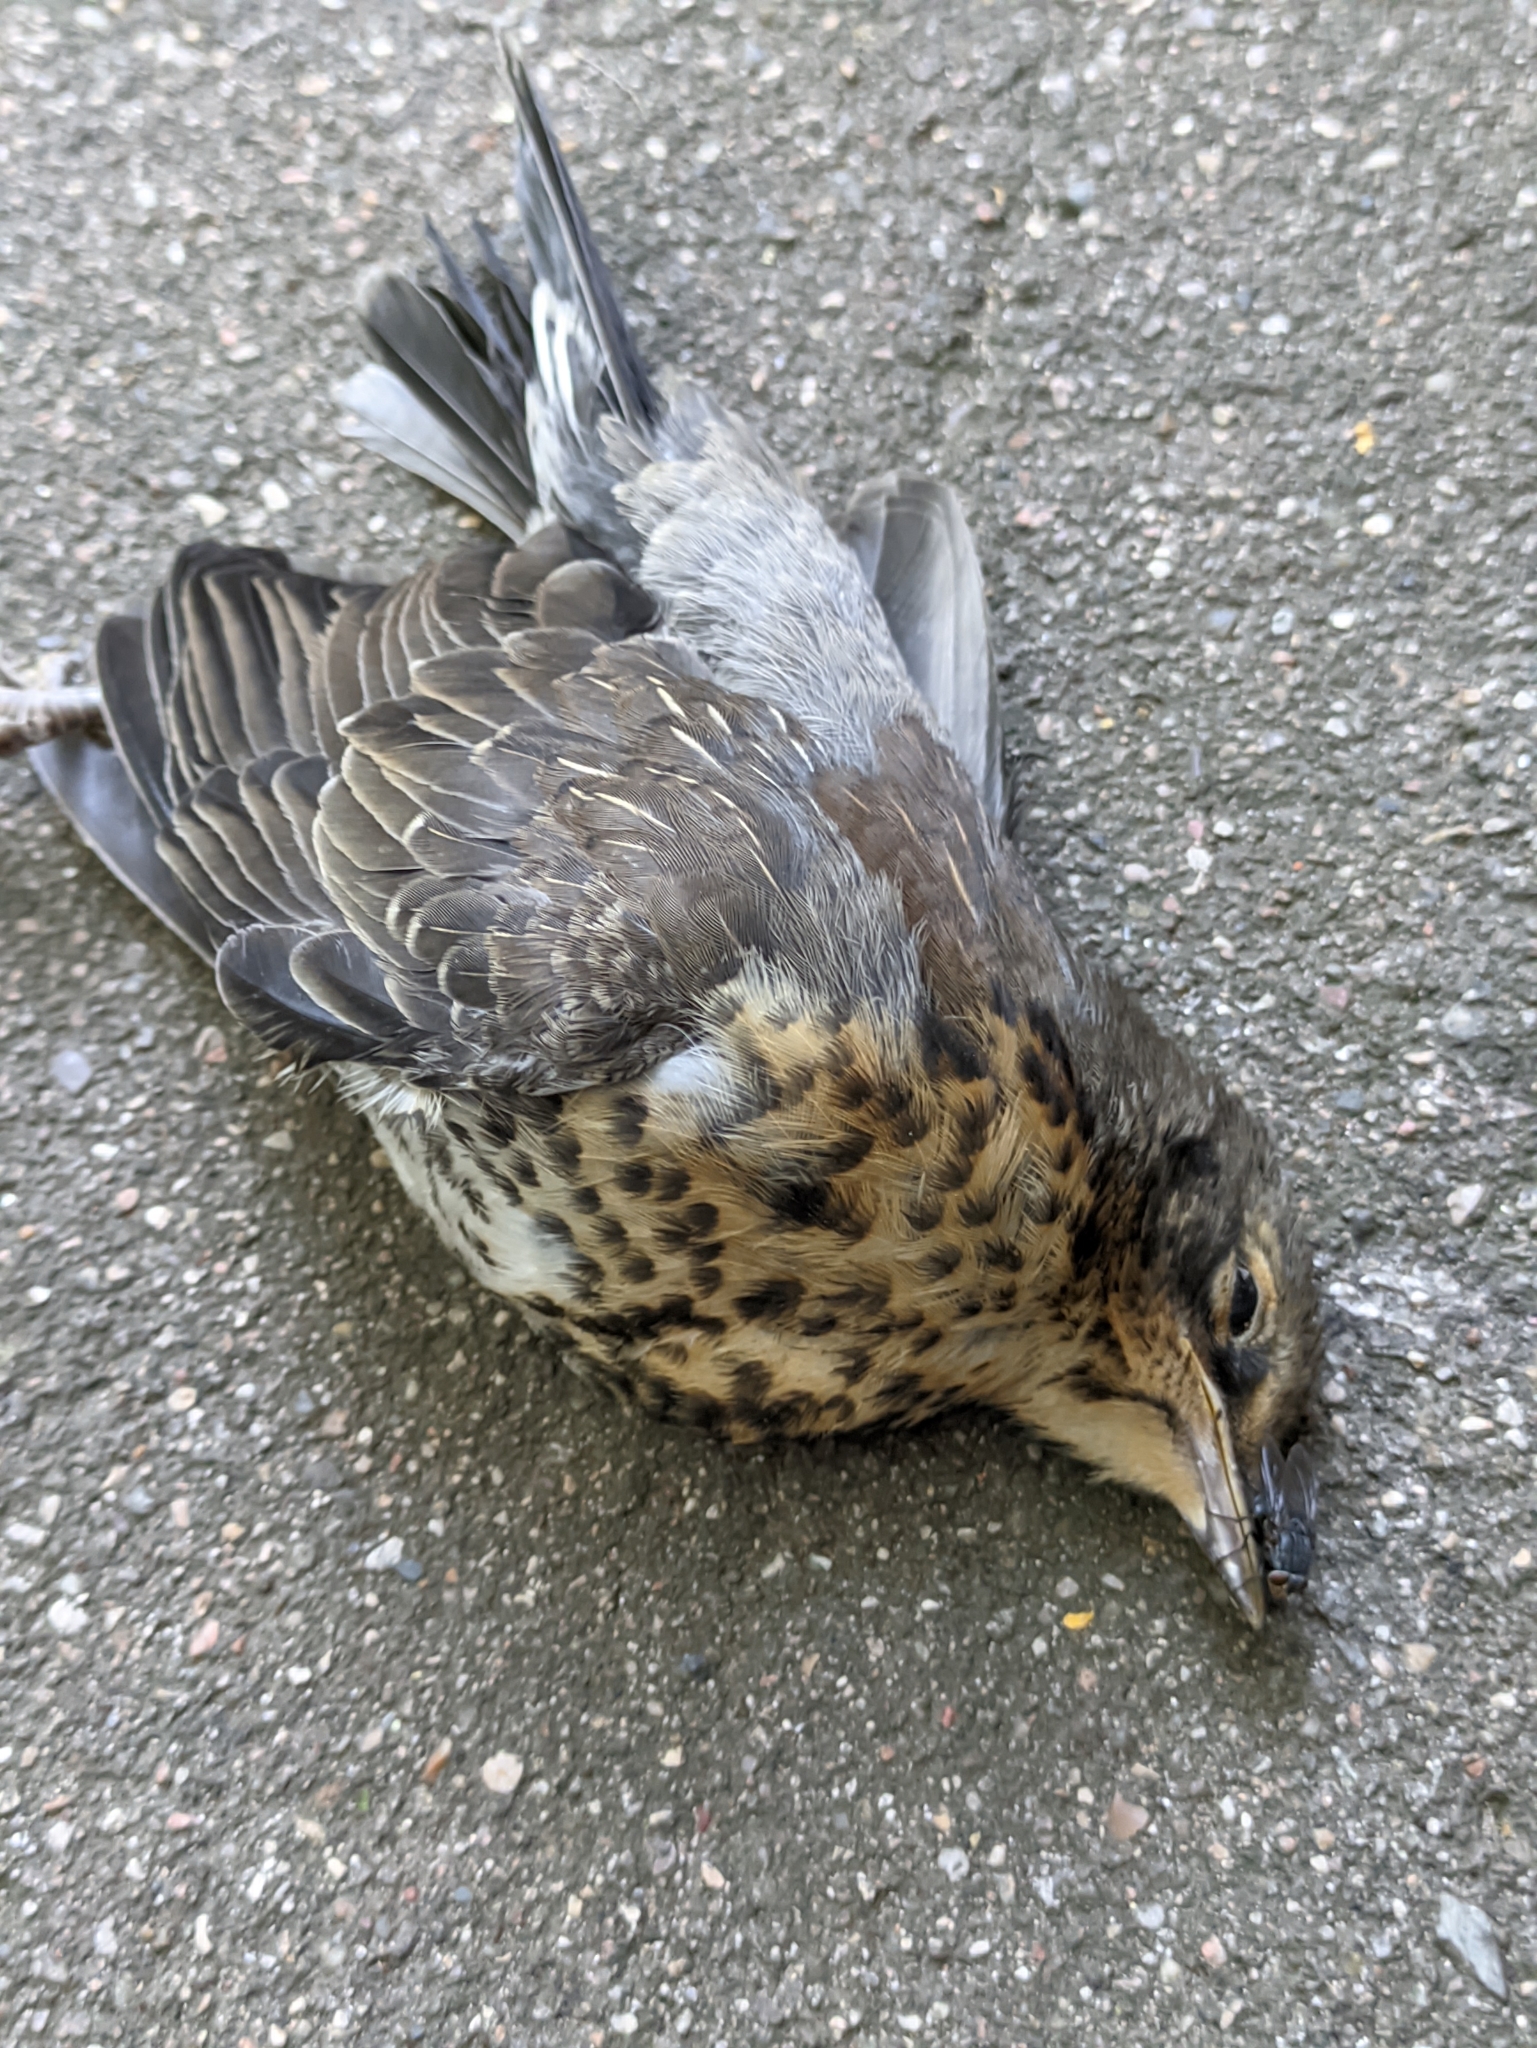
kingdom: Animalia
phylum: Chordata
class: Aves
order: Passeriformes
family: Turdidae
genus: Turdus
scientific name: Turdus pilaris
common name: Fieldfare
